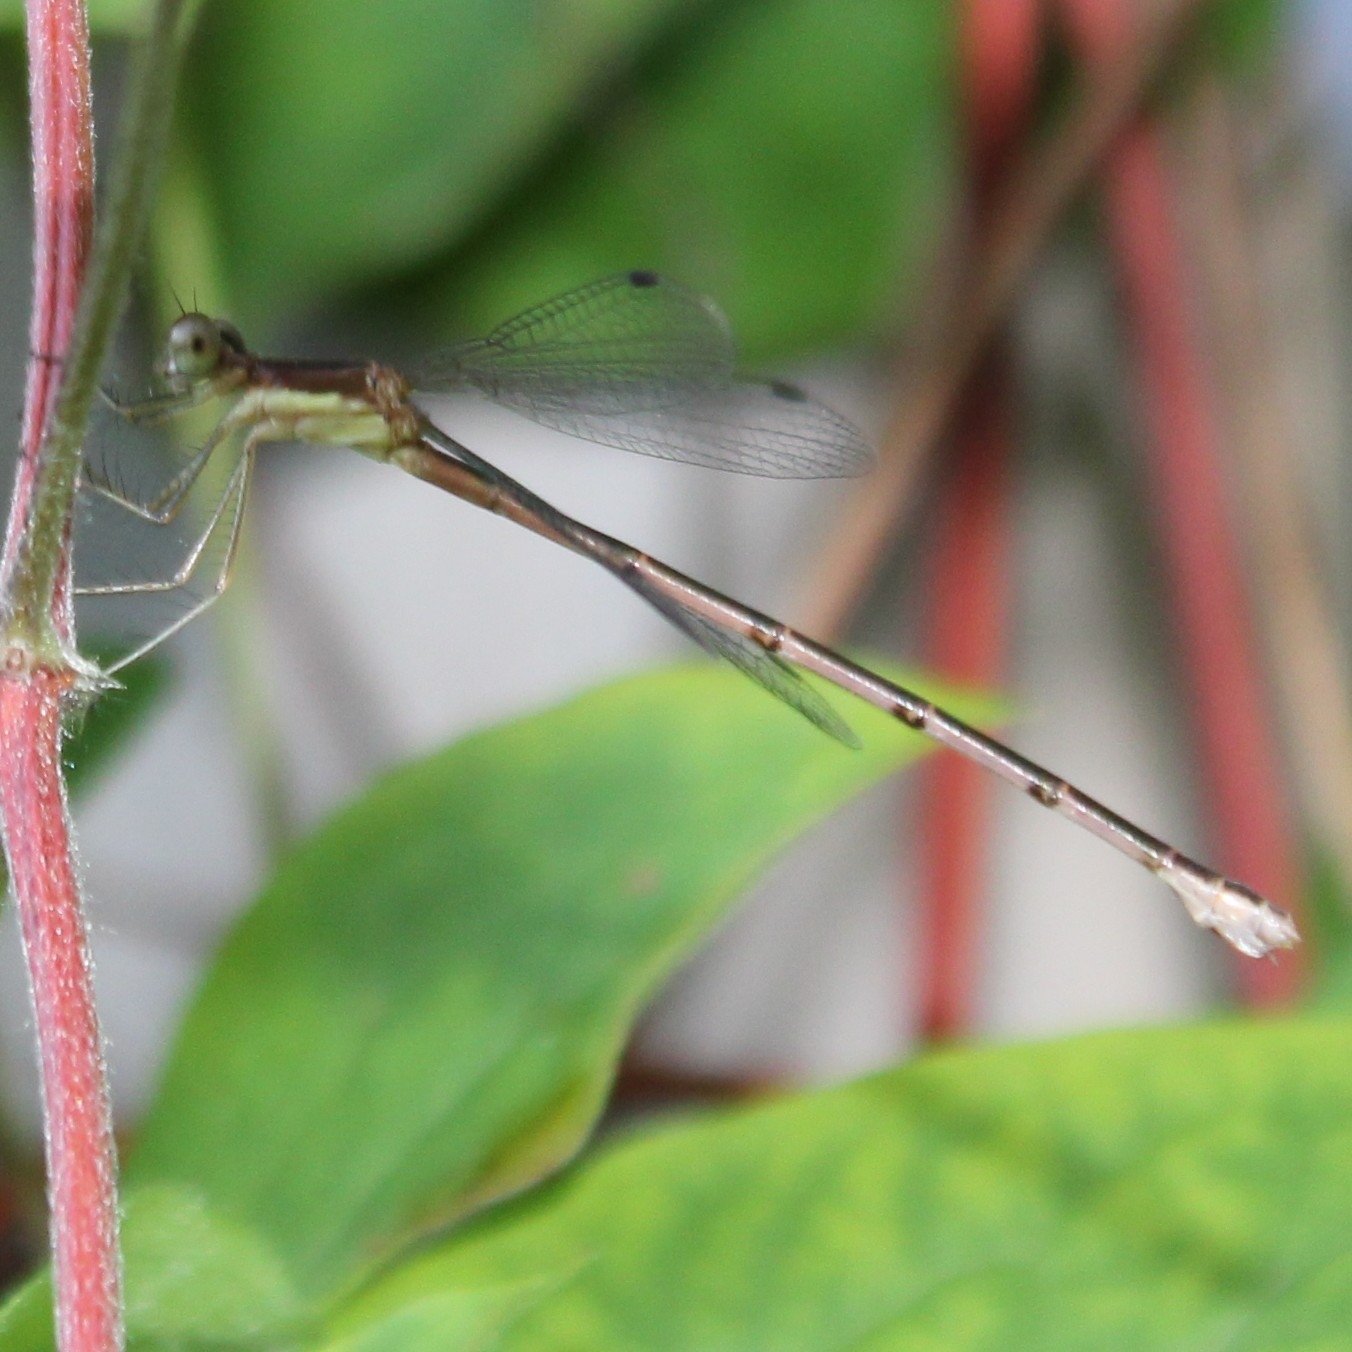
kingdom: Animalia
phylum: Arthropoda
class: Insecta
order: Odonata
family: Lestidae
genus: Lestes
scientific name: Lestes rectangularis
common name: Slender spreadwing
